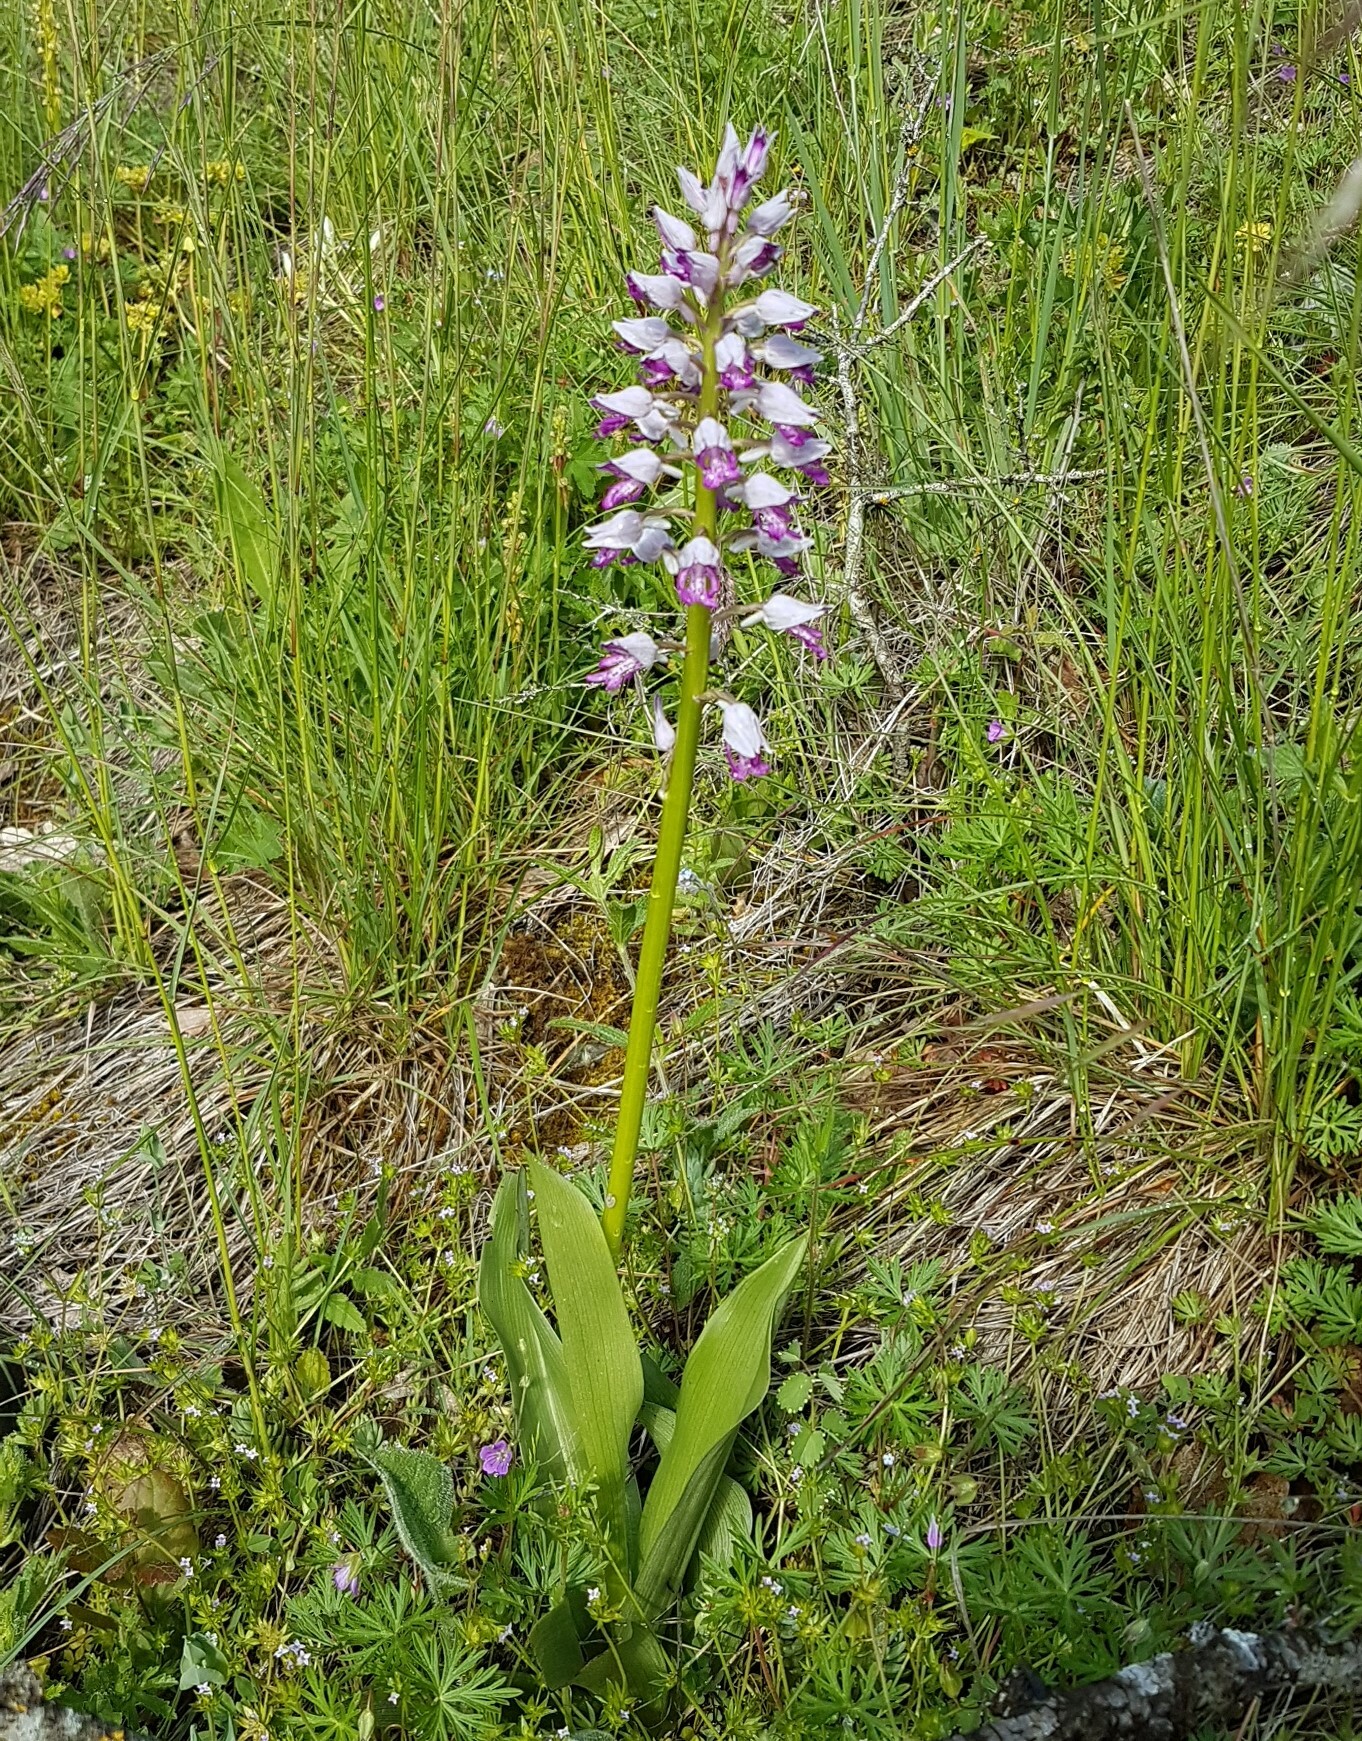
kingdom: Plantae
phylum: Tracheophyta
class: Liliopsida
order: Asparagales
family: Orchidaceae
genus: Orchis
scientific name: Orchis militaris
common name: Military orchid
